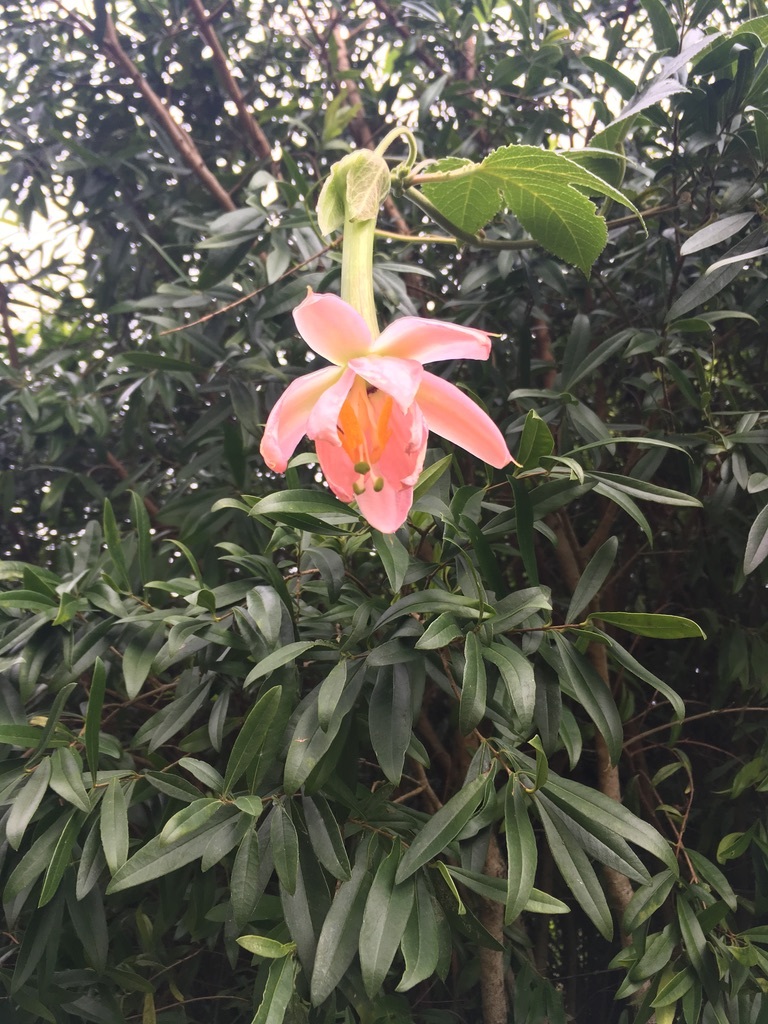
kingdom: Plantae
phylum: Tracheophyta
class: Magnoliopsida
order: Malpighiales
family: Passifloraceae
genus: Passiflora
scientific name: Passiflora tarminiana
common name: Banana poka
